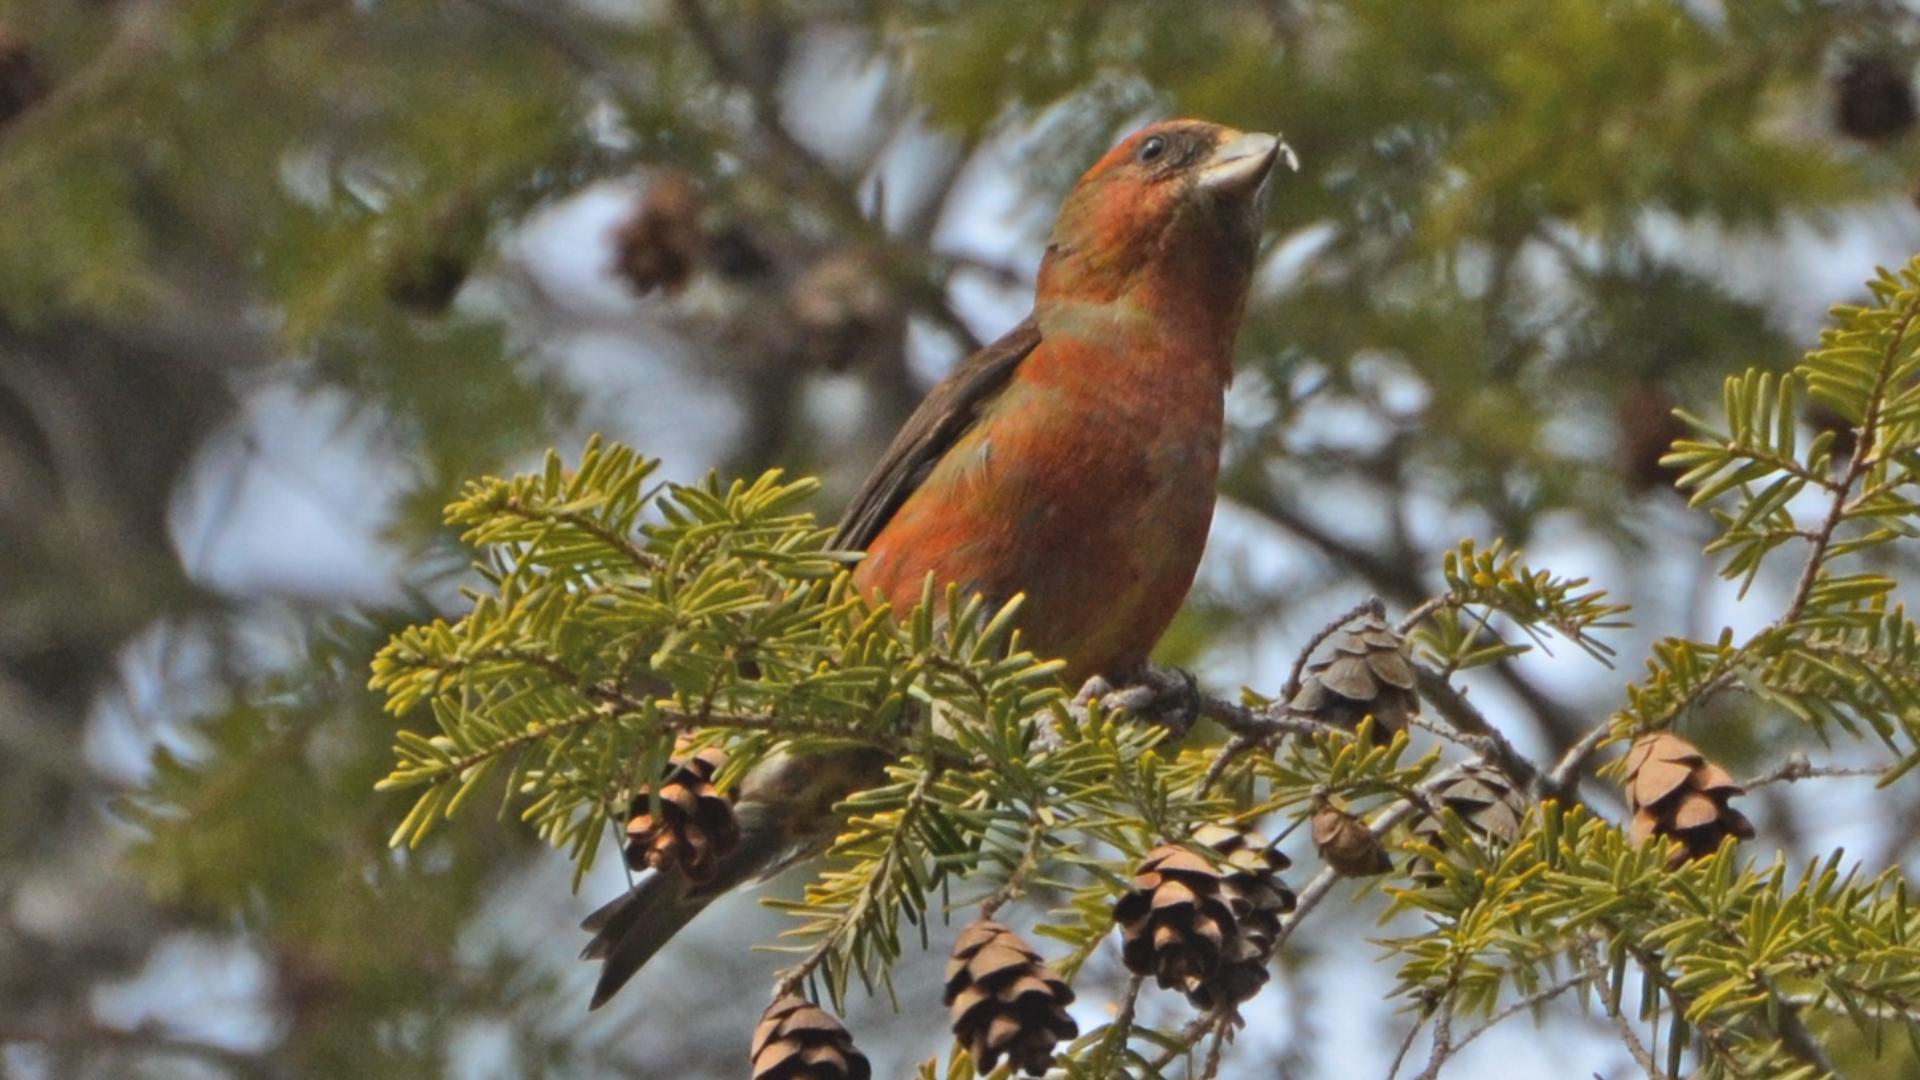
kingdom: Animalia
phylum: Chordata
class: Aves
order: Passeriformes
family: Fringillidae
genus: Loxia
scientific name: Loxia curvirostra
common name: Red crossbill
